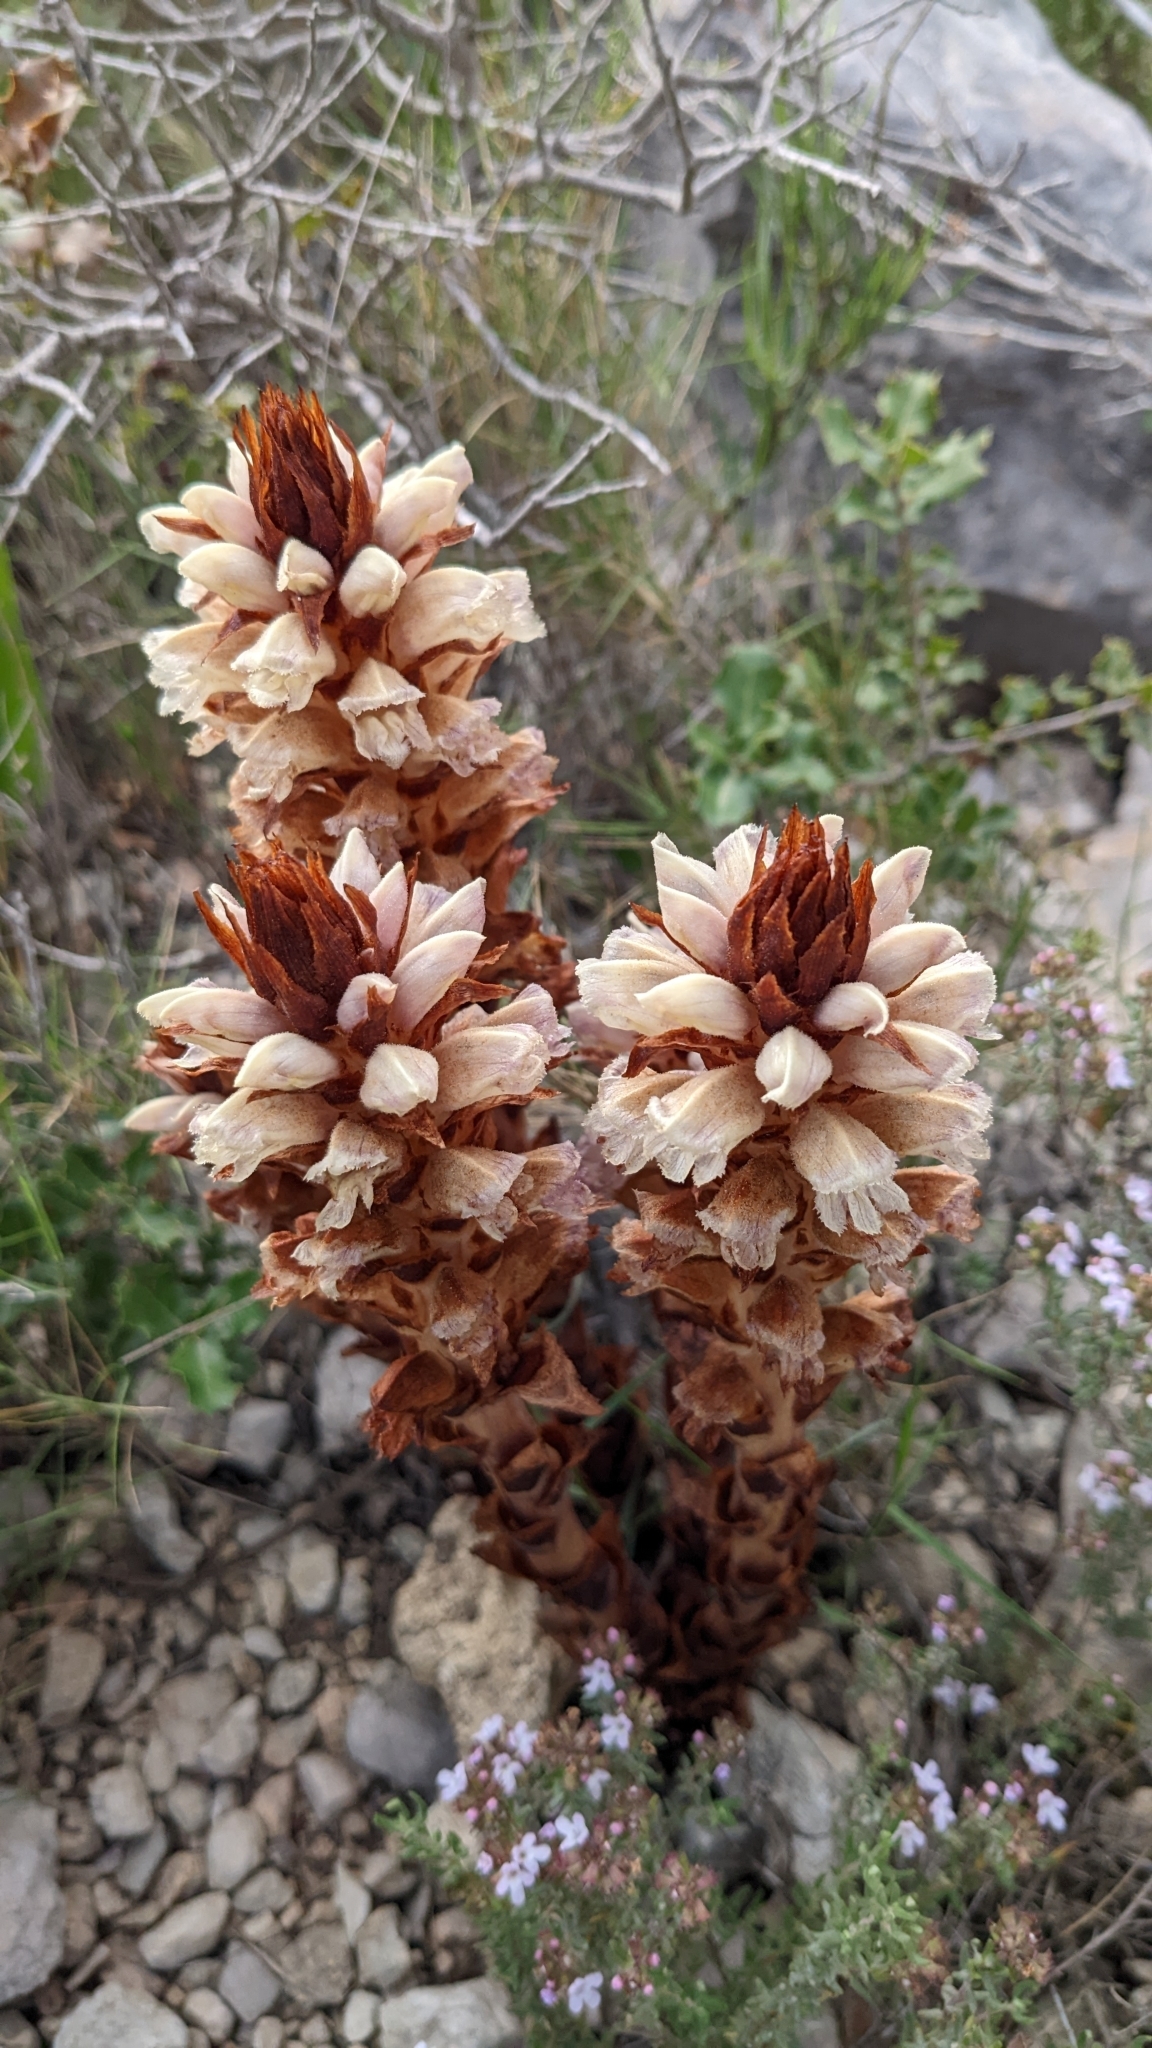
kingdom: Plantae
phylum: Tracheophyta
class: Magnoliopsida
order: Lamiales
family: Orobanchaceae
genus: Boulardia
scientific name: Boulardia latisquama
